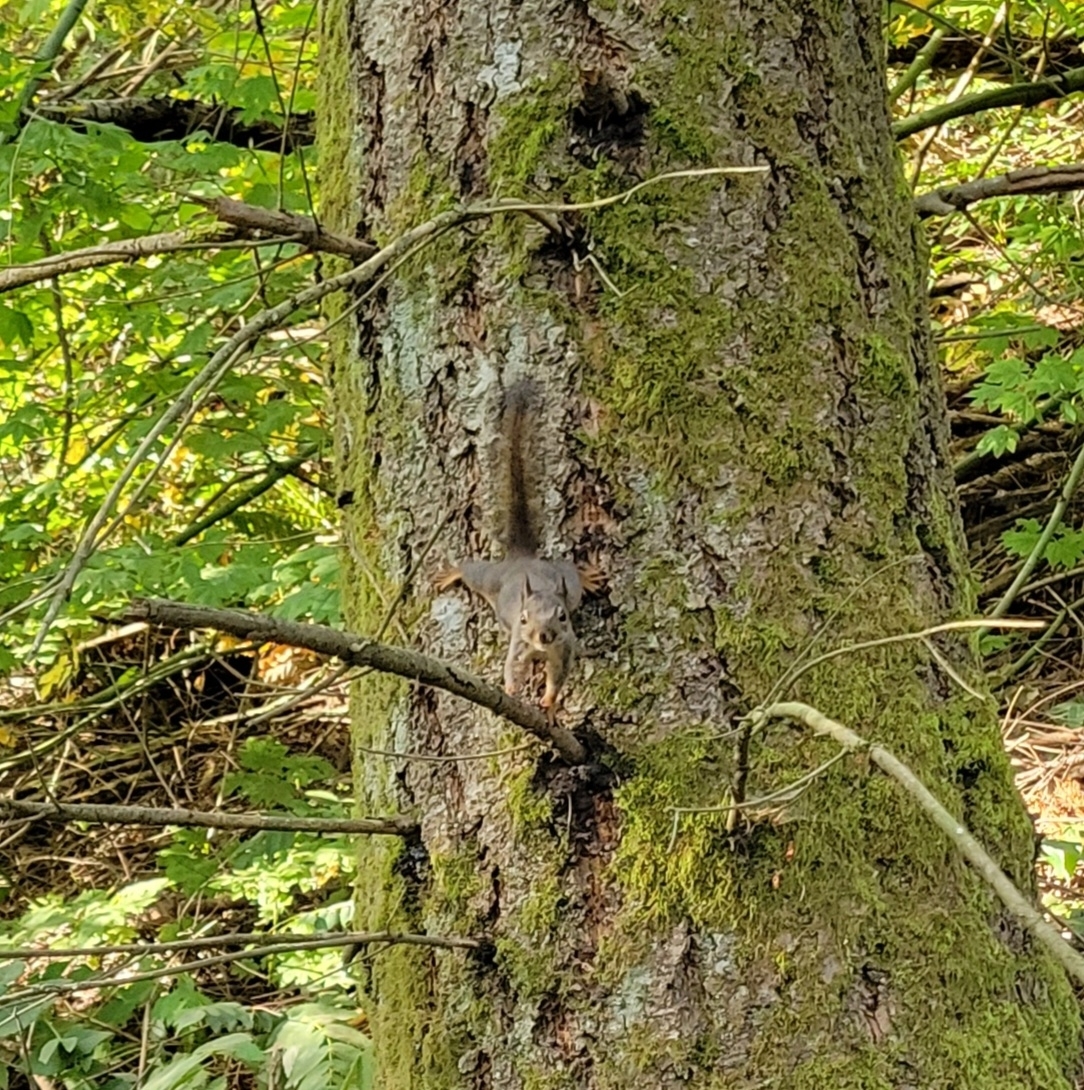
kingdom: Animalia
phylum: Chordata
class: Mammalia
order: Rodentia
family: Sciuridae
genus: Tamiasciurus
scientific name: Tamiasciurus douglasii
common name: Douglas's squirrel
